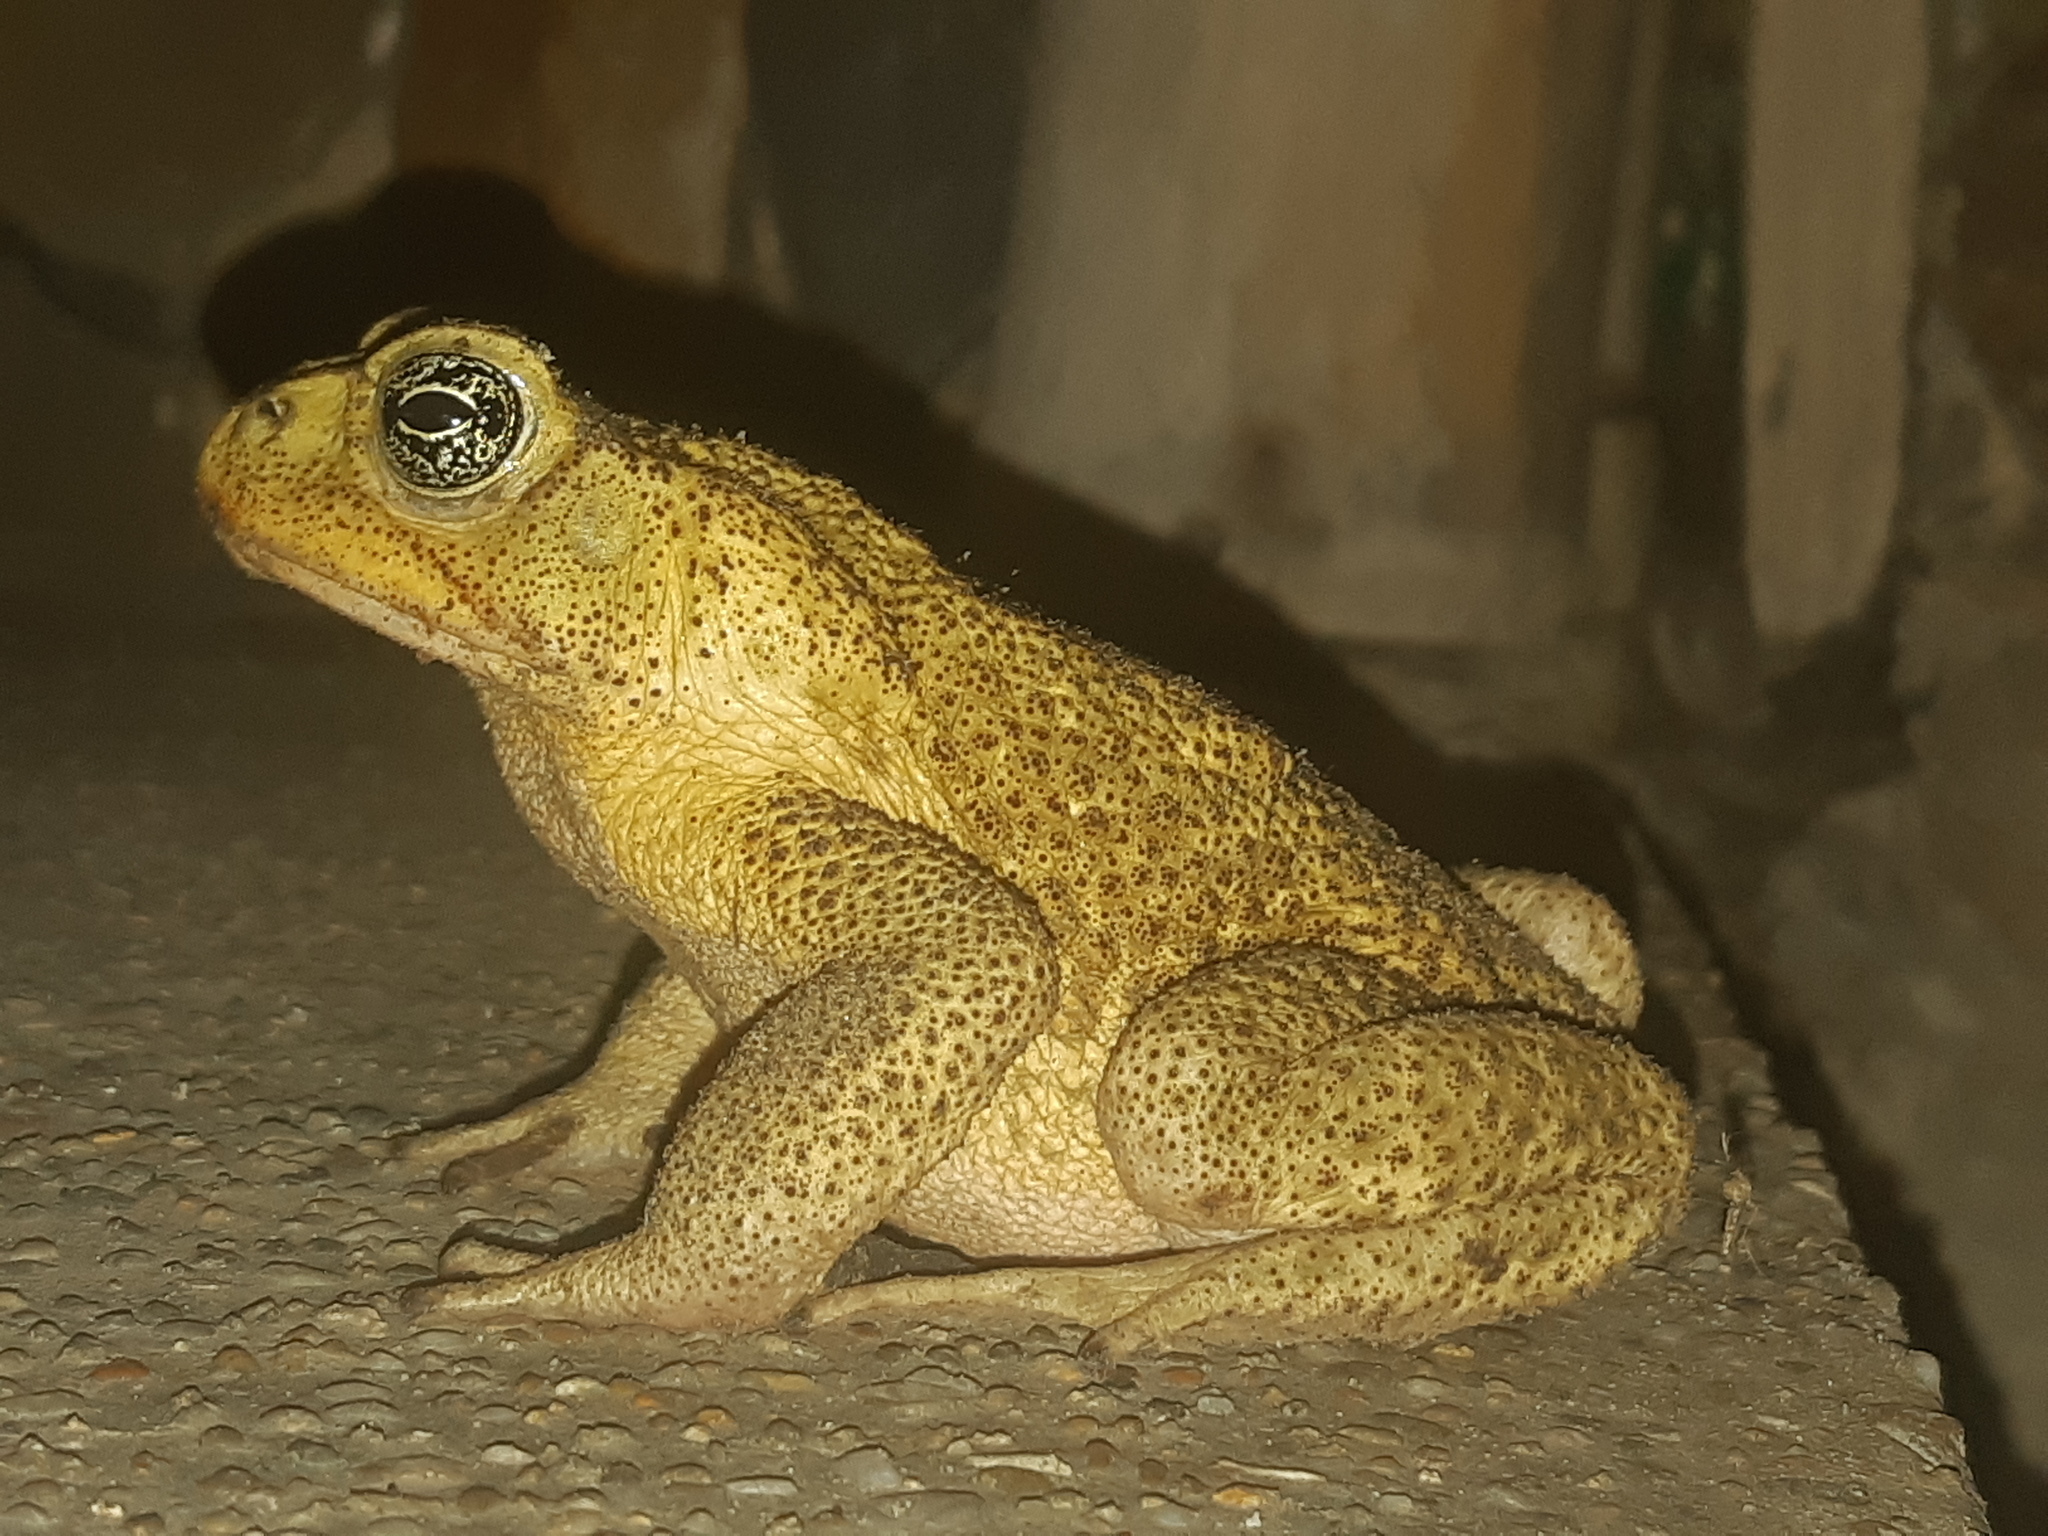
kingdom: Animalia
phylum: Chordata
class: Amphibia
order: Anura
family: Bufonidae
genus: Rhinella
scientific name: Rhinella
